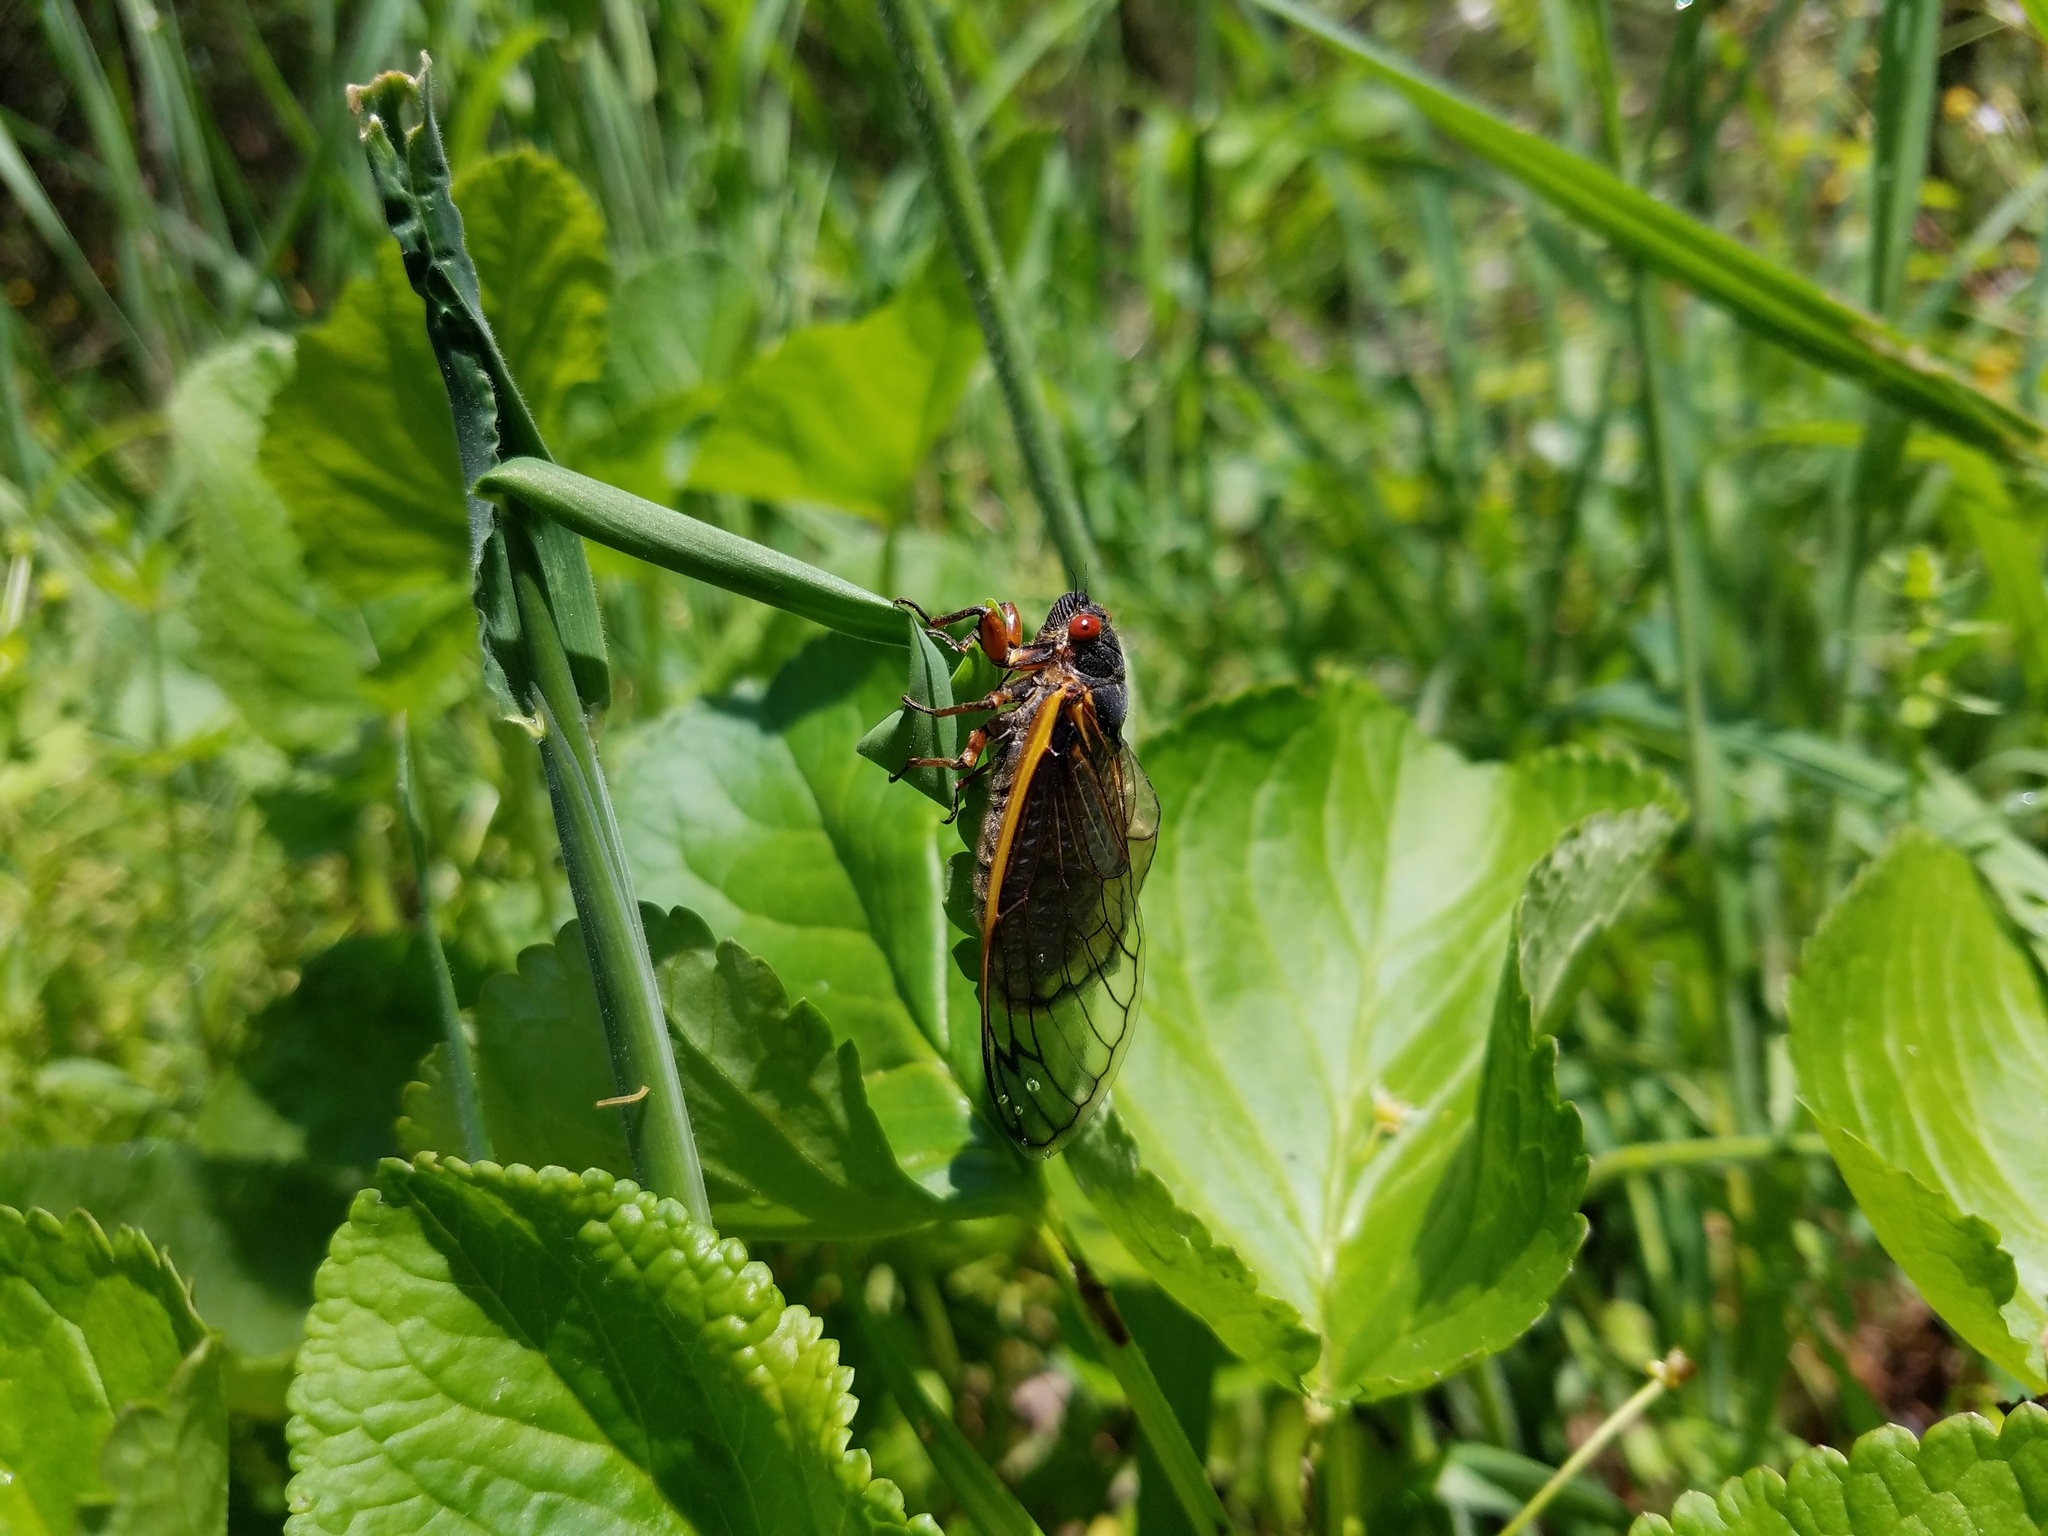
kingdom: Animalia
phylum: Arthropoda
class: Insecta
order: Hemiptera
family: Cicadidae
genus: Magicicada
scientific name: Magicicada septendecim
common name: Periodical cicada
